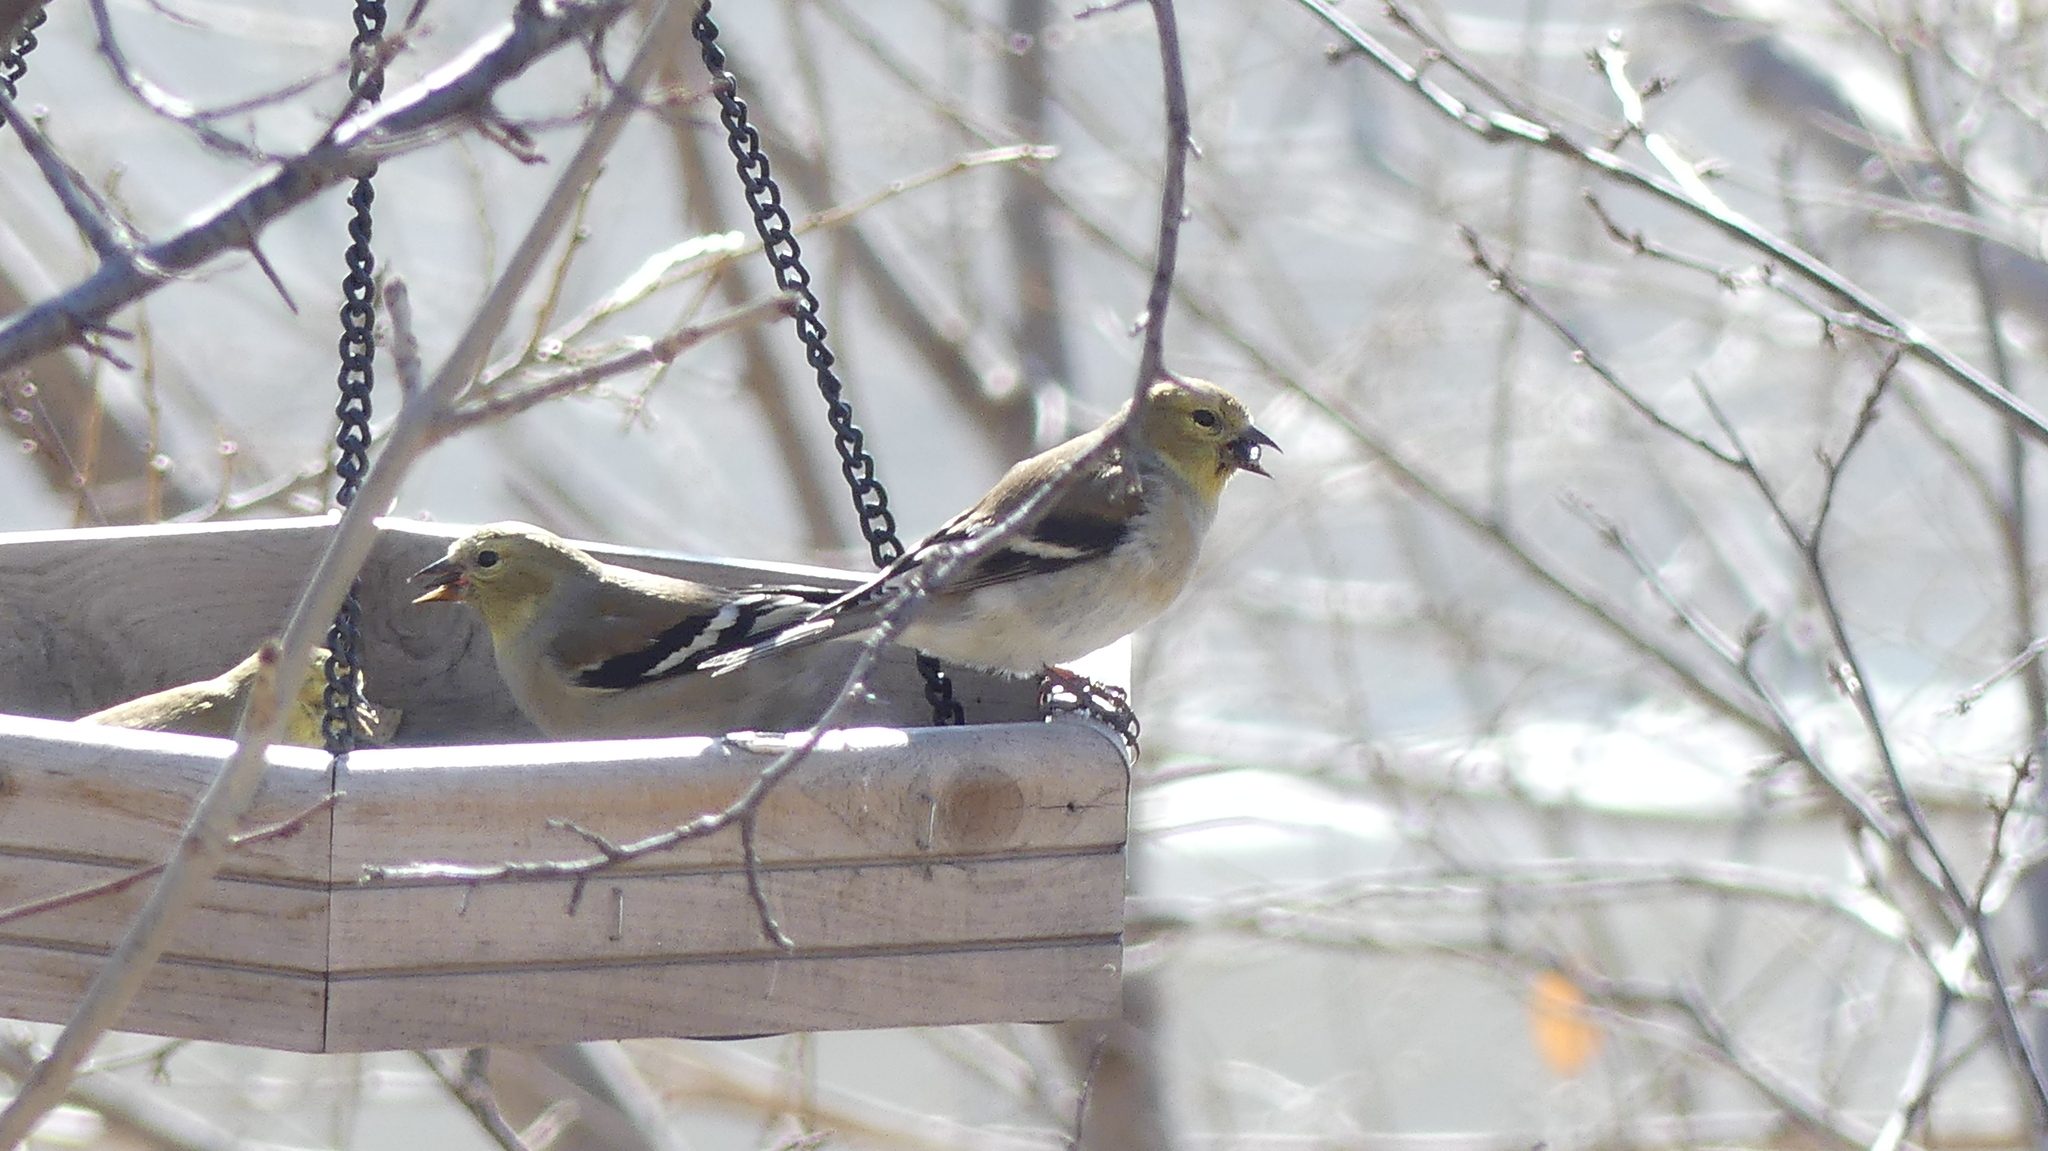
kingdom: Animalia
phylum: Chordata
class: Aves
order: Passeriformes
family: Fringillidae
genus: Spinus
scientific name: Spinus tristis
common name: American goldfinch
